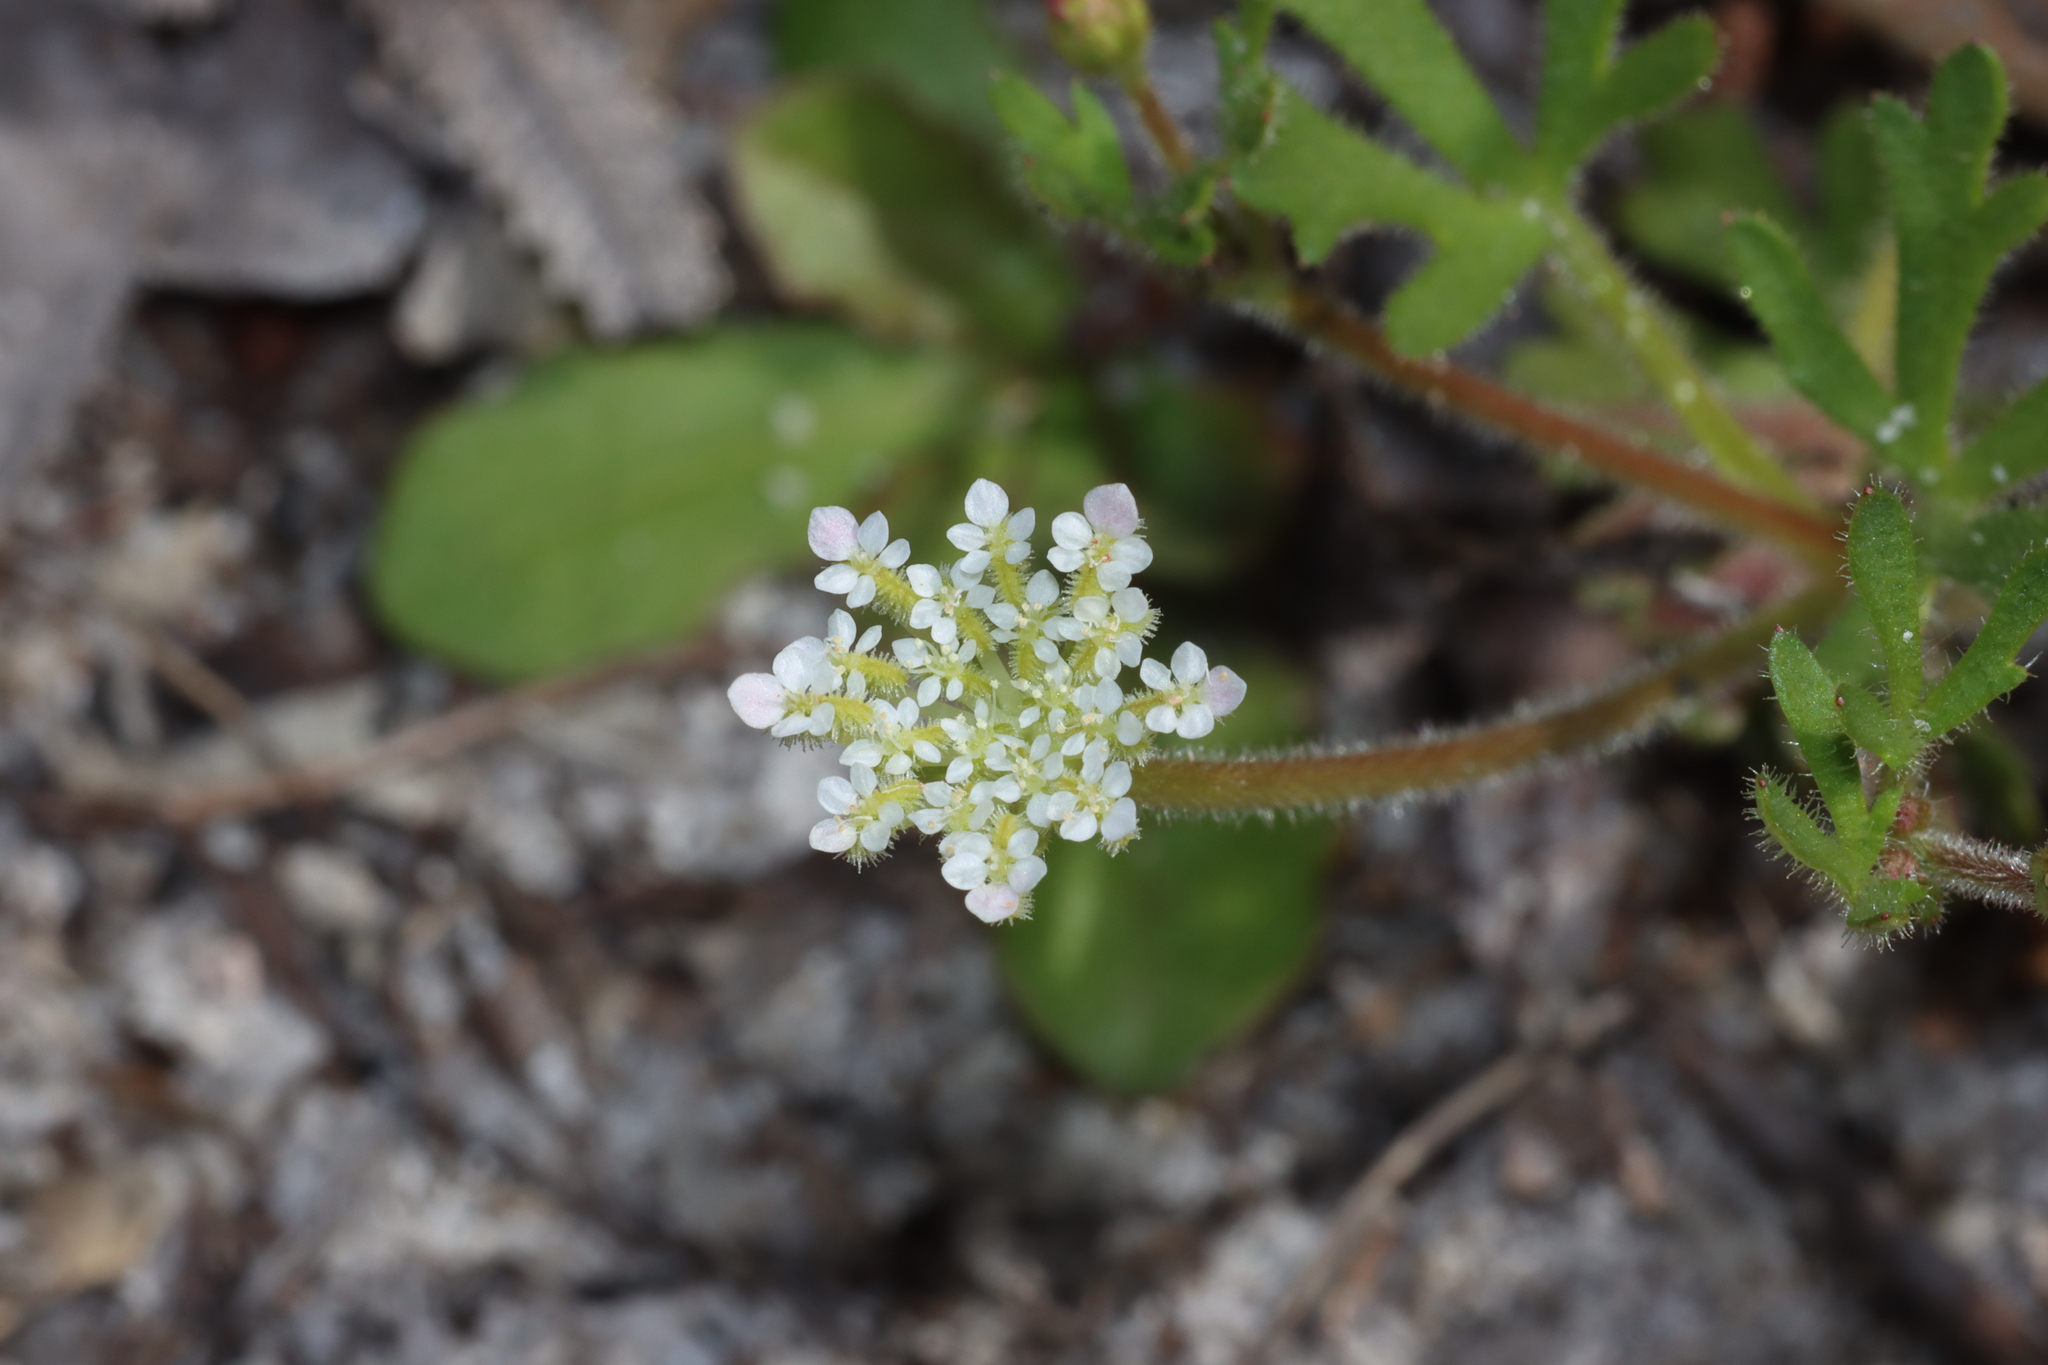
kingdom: Plantae
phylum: Tracheophyta
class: Magnoliopsida
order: Apiales
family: Araliaceae
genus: Trachymene
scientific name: Trachymene pilosa
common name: Dwarf trachymene
